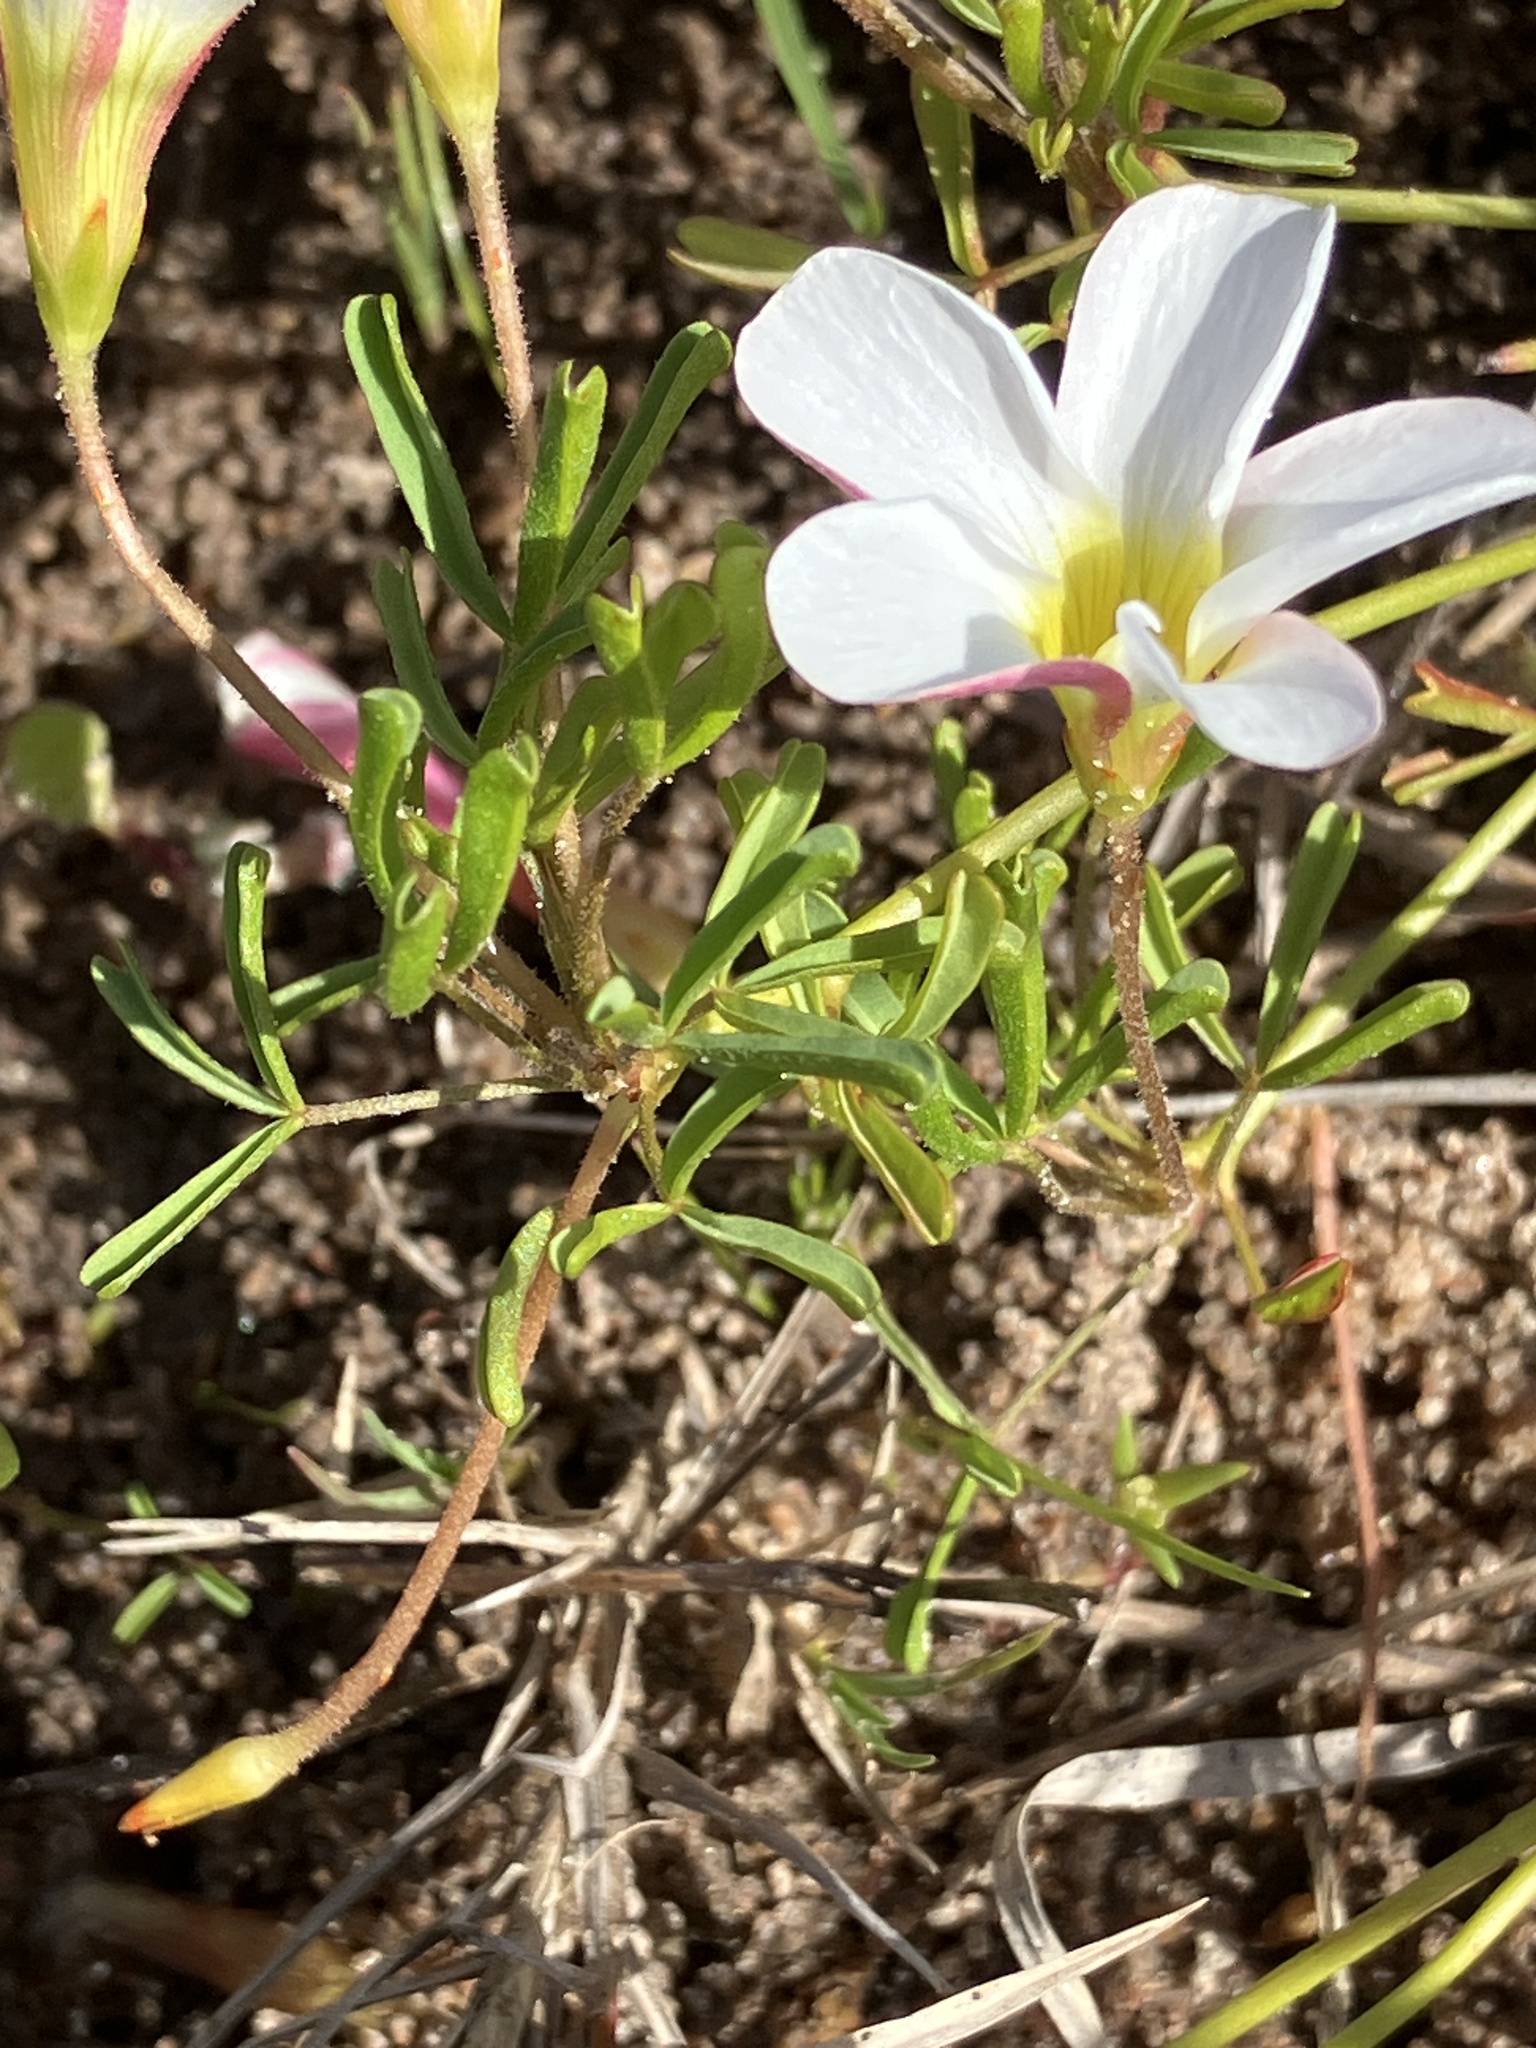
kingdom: Plantae
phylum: Tracheophyta
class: Magnoliopsida
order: Oxalidales
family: Oxalidaceae
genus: Oxalis
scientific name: Oxalis versicolor
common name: Peppermint rock oxalis
